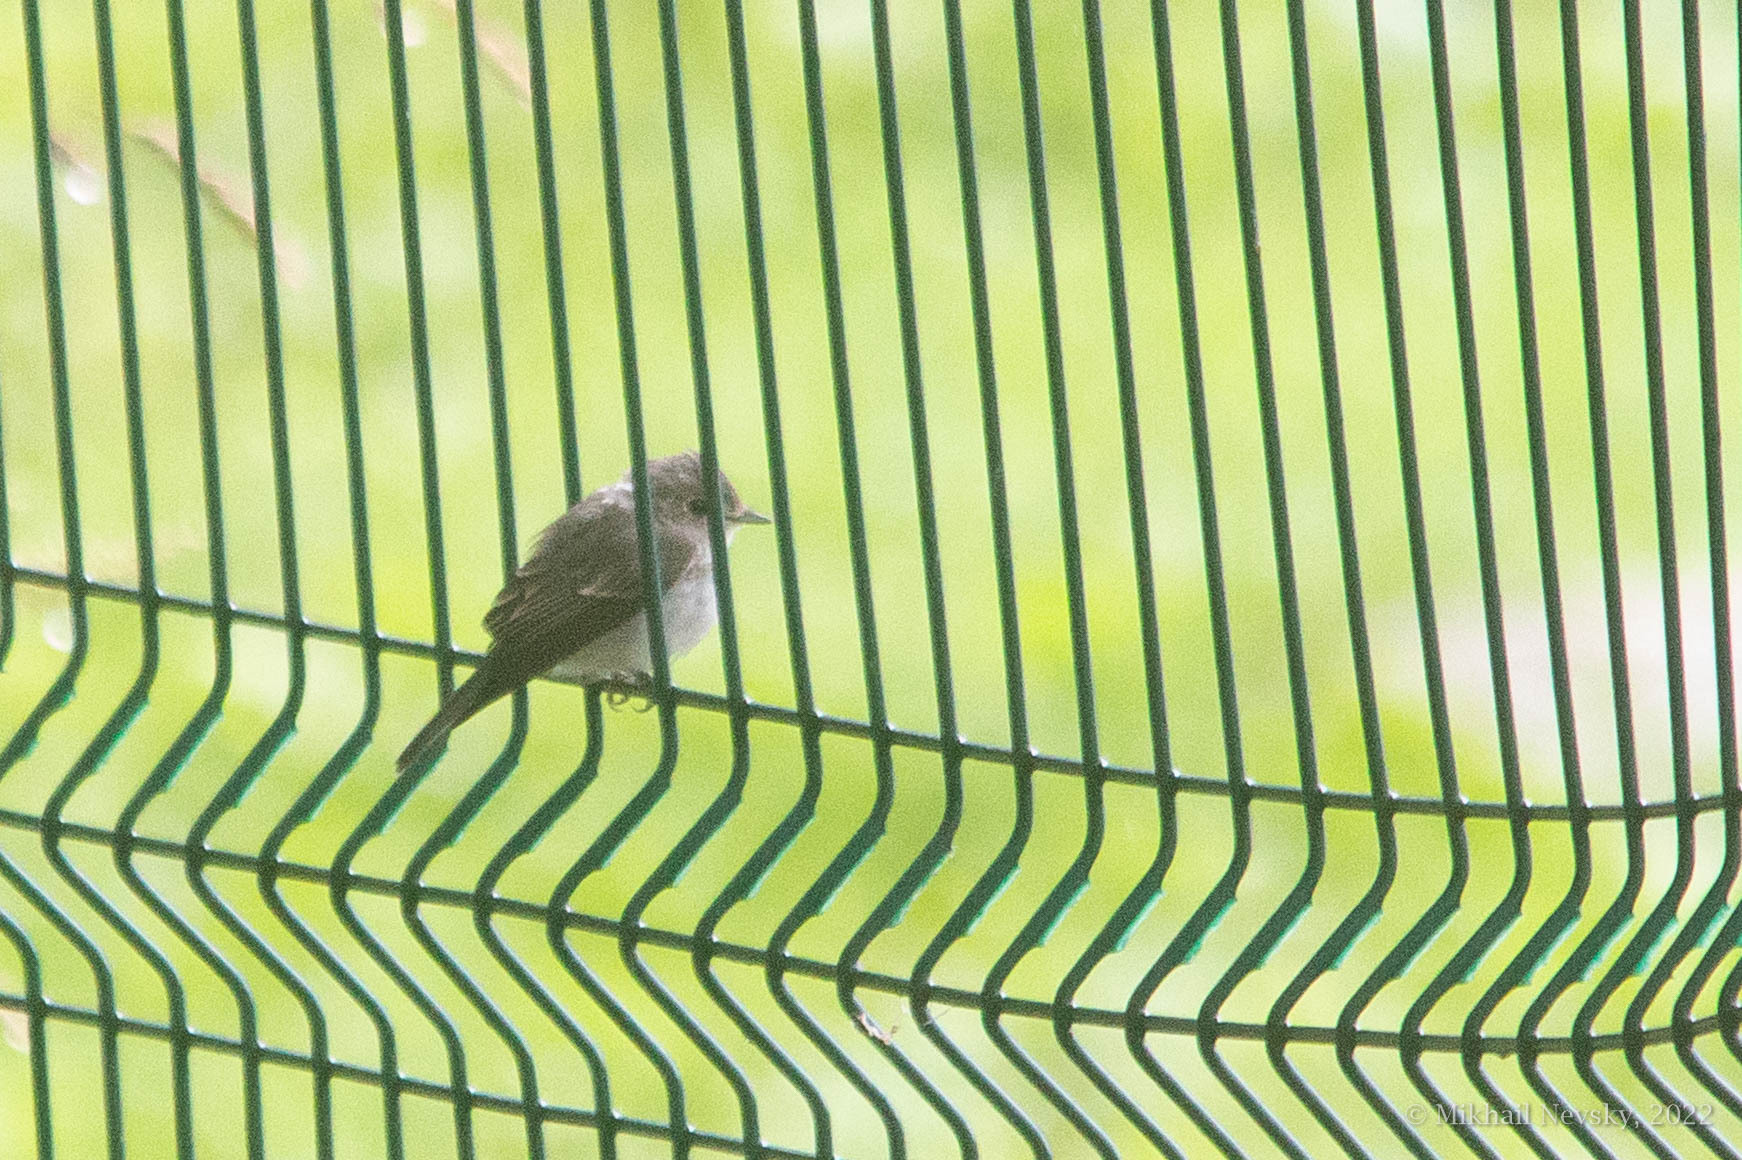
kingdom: Animalia
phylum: Chordata
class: Aves
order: Passeriformes
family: Muscicapidae
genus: Muscicapa
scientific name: Muscicapa latirostris
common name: Asian brown flycatcher
